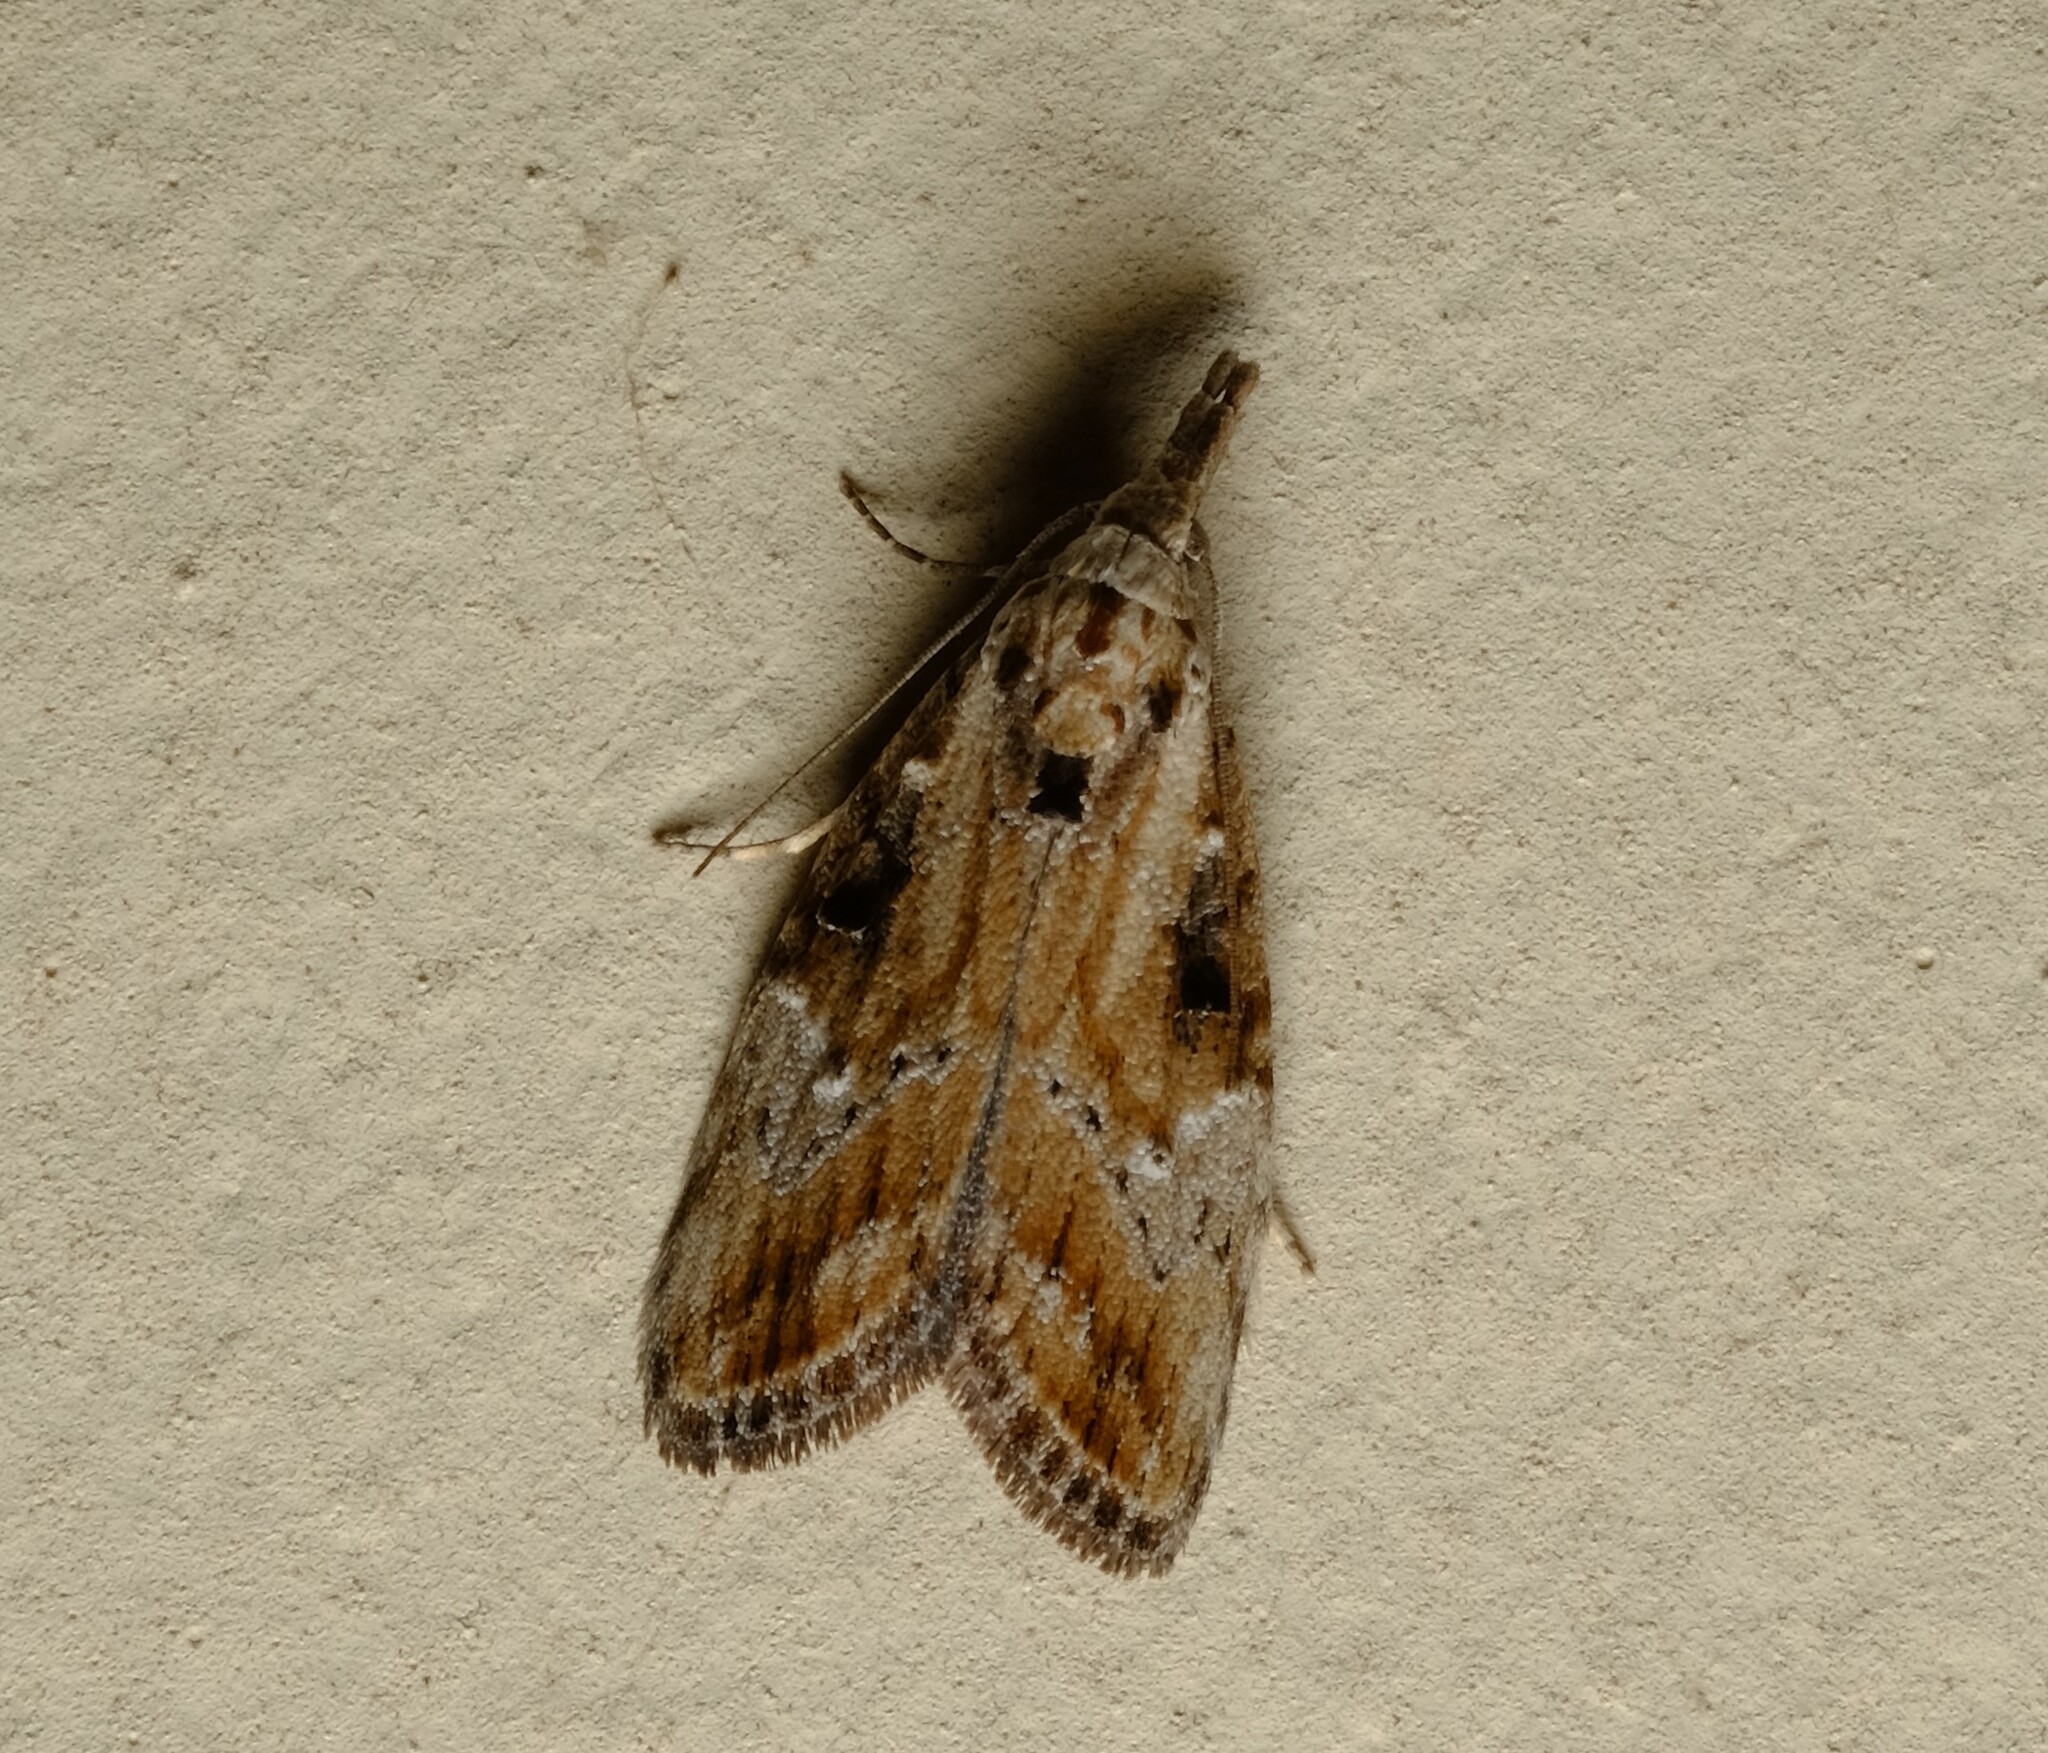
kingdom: Animalia
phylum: Arthropoda
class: Insecta
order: Lepidoptera
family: Nolidae
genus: Nola
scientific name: Nola biguttalis
